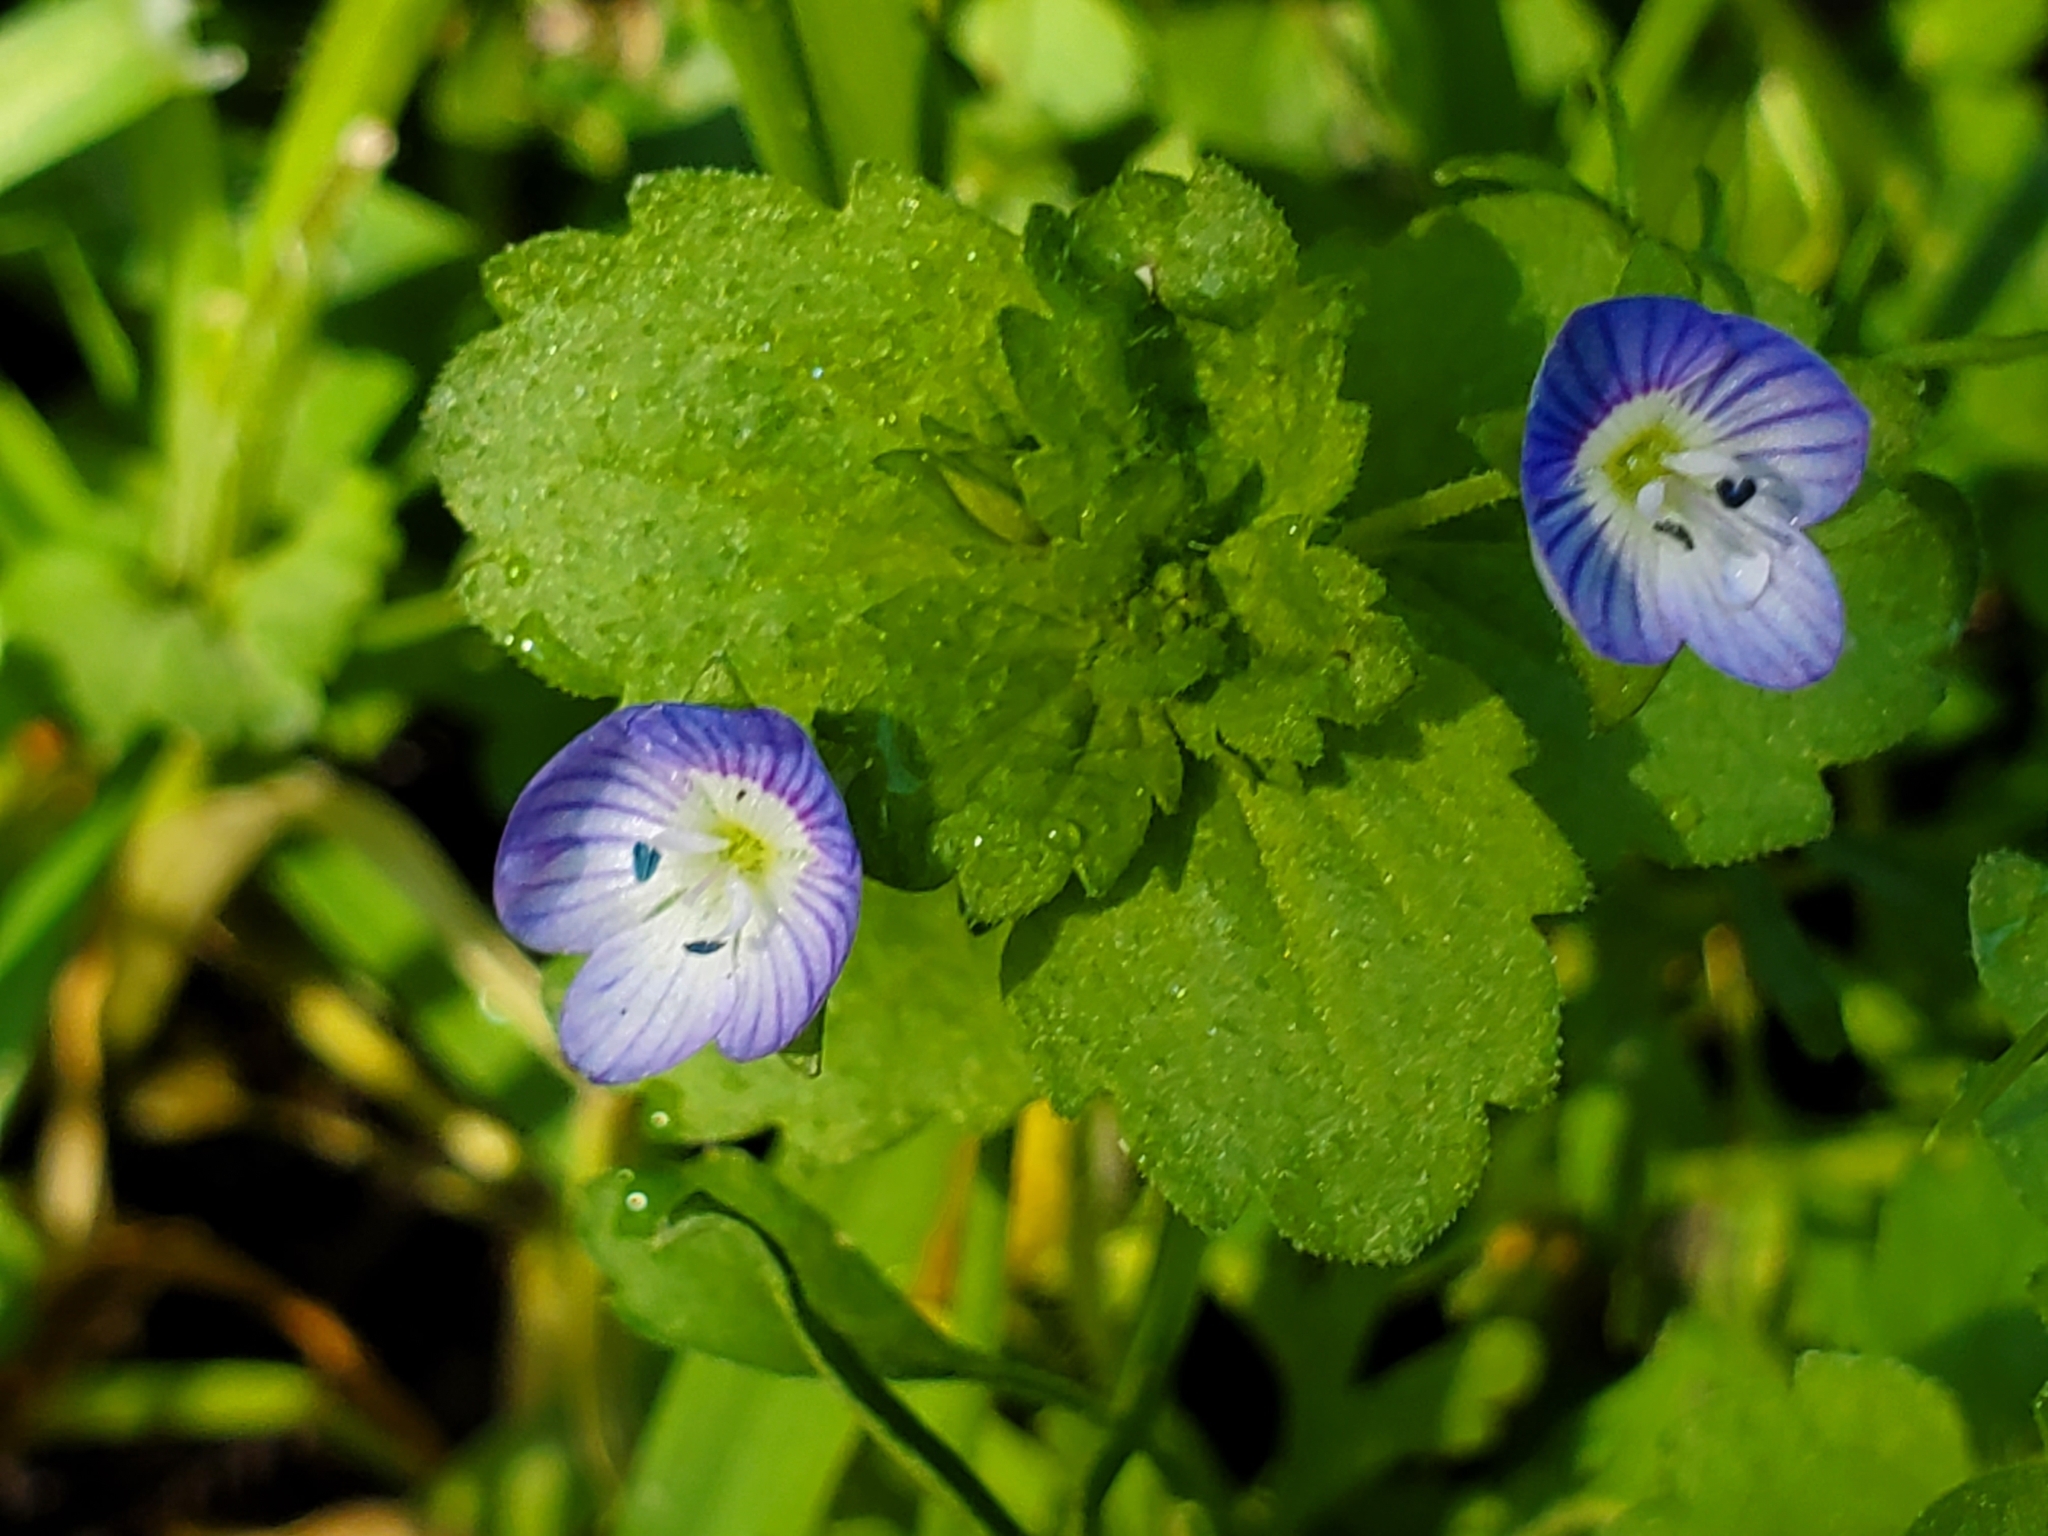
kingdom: Plantae
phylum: Tracheophyta
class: Magnoliopsida
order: Lamiales
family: Plantaginaceae
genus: Veronica
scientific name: Veronica persica
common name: Common field-speedwell
